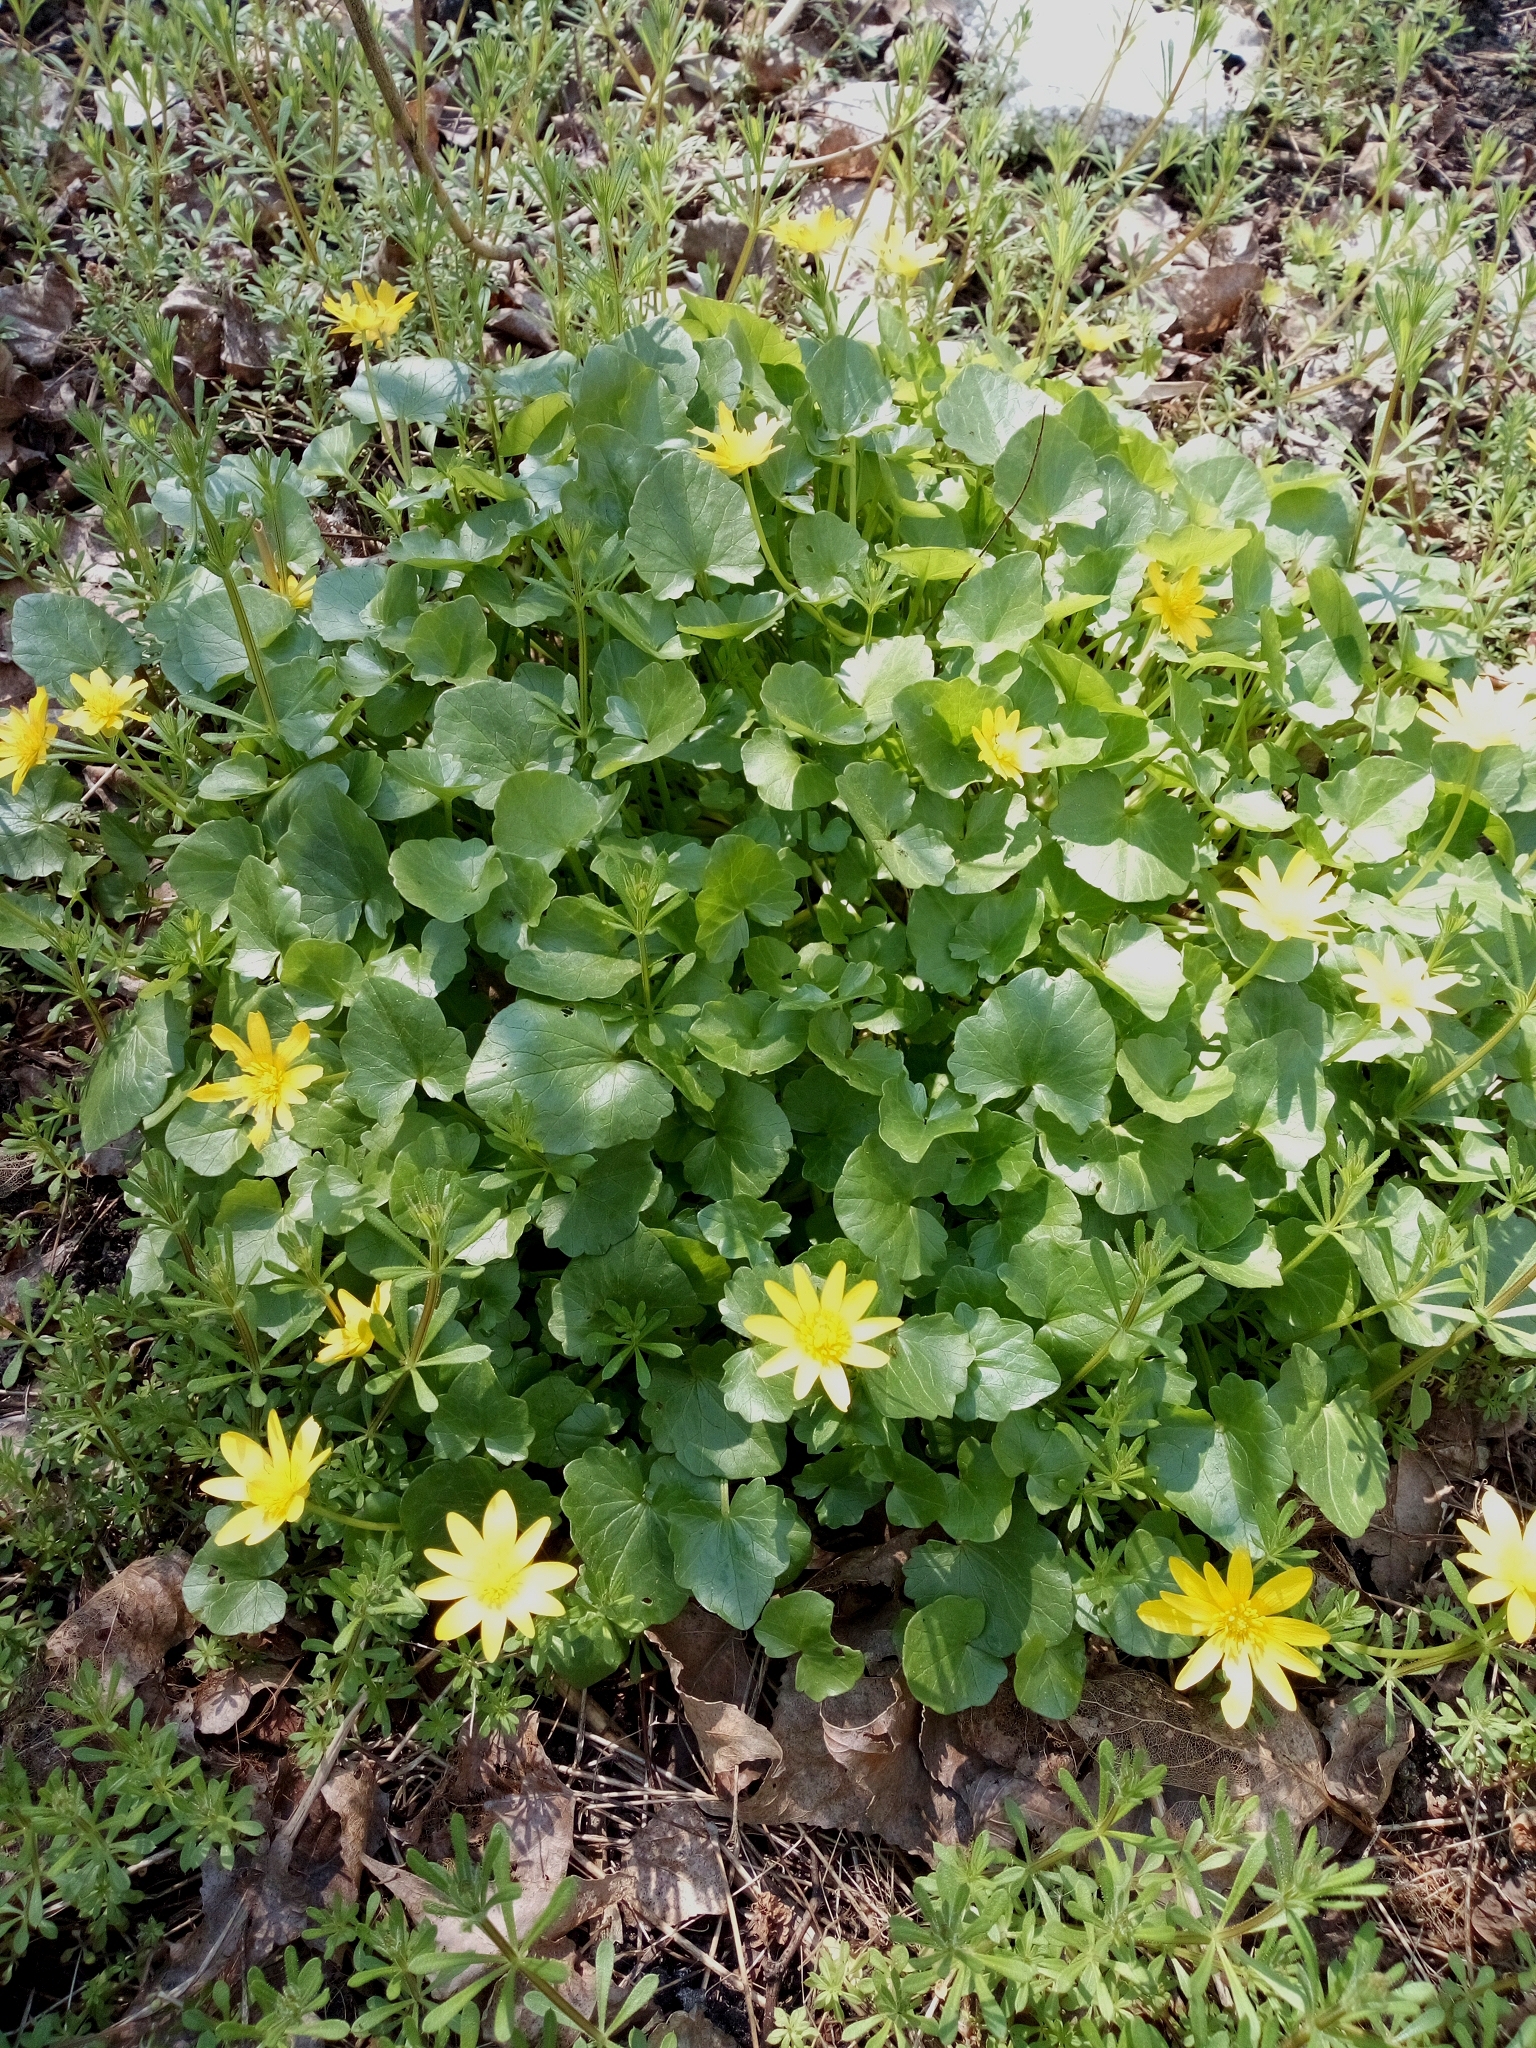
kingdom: Plantae
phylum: Tracheophyta
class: Magnoliopsida
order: Ranunculales
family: Ranunculaceae
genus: Ficaria
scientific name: Ficaria verna
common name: Lesser celandine
